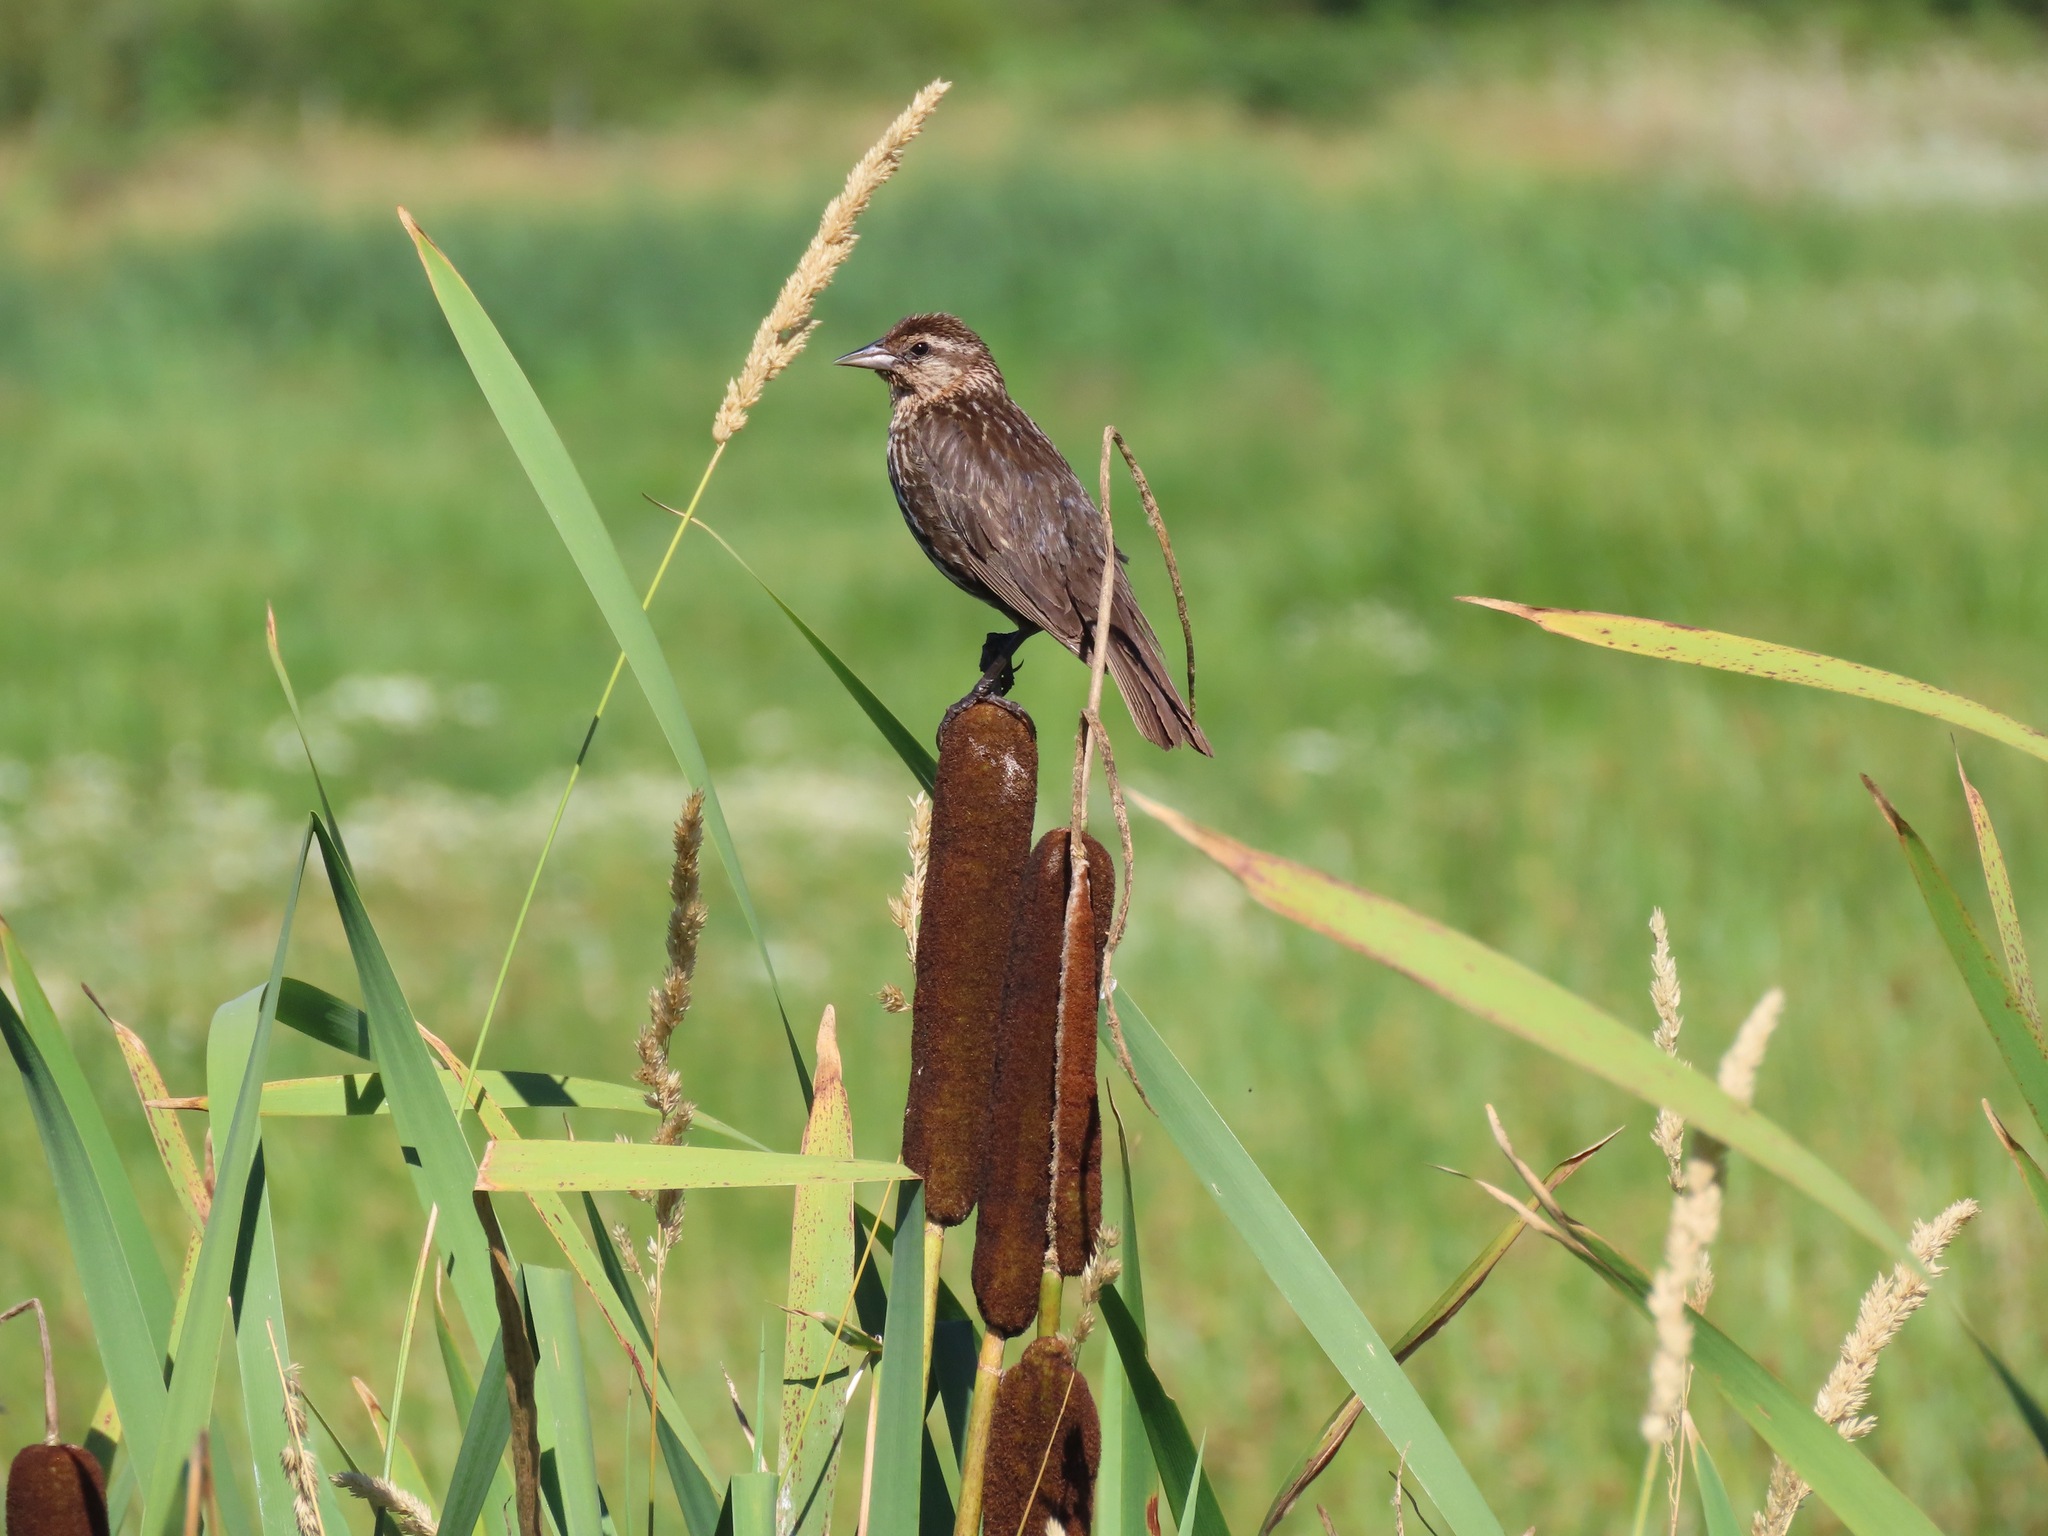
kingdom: Animalia
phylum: Chordata
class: Aves
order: Passeriformes
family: Icteridae
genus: Agelaius
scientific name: Agelaius phoeniceus
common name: Red-winged blackbird
